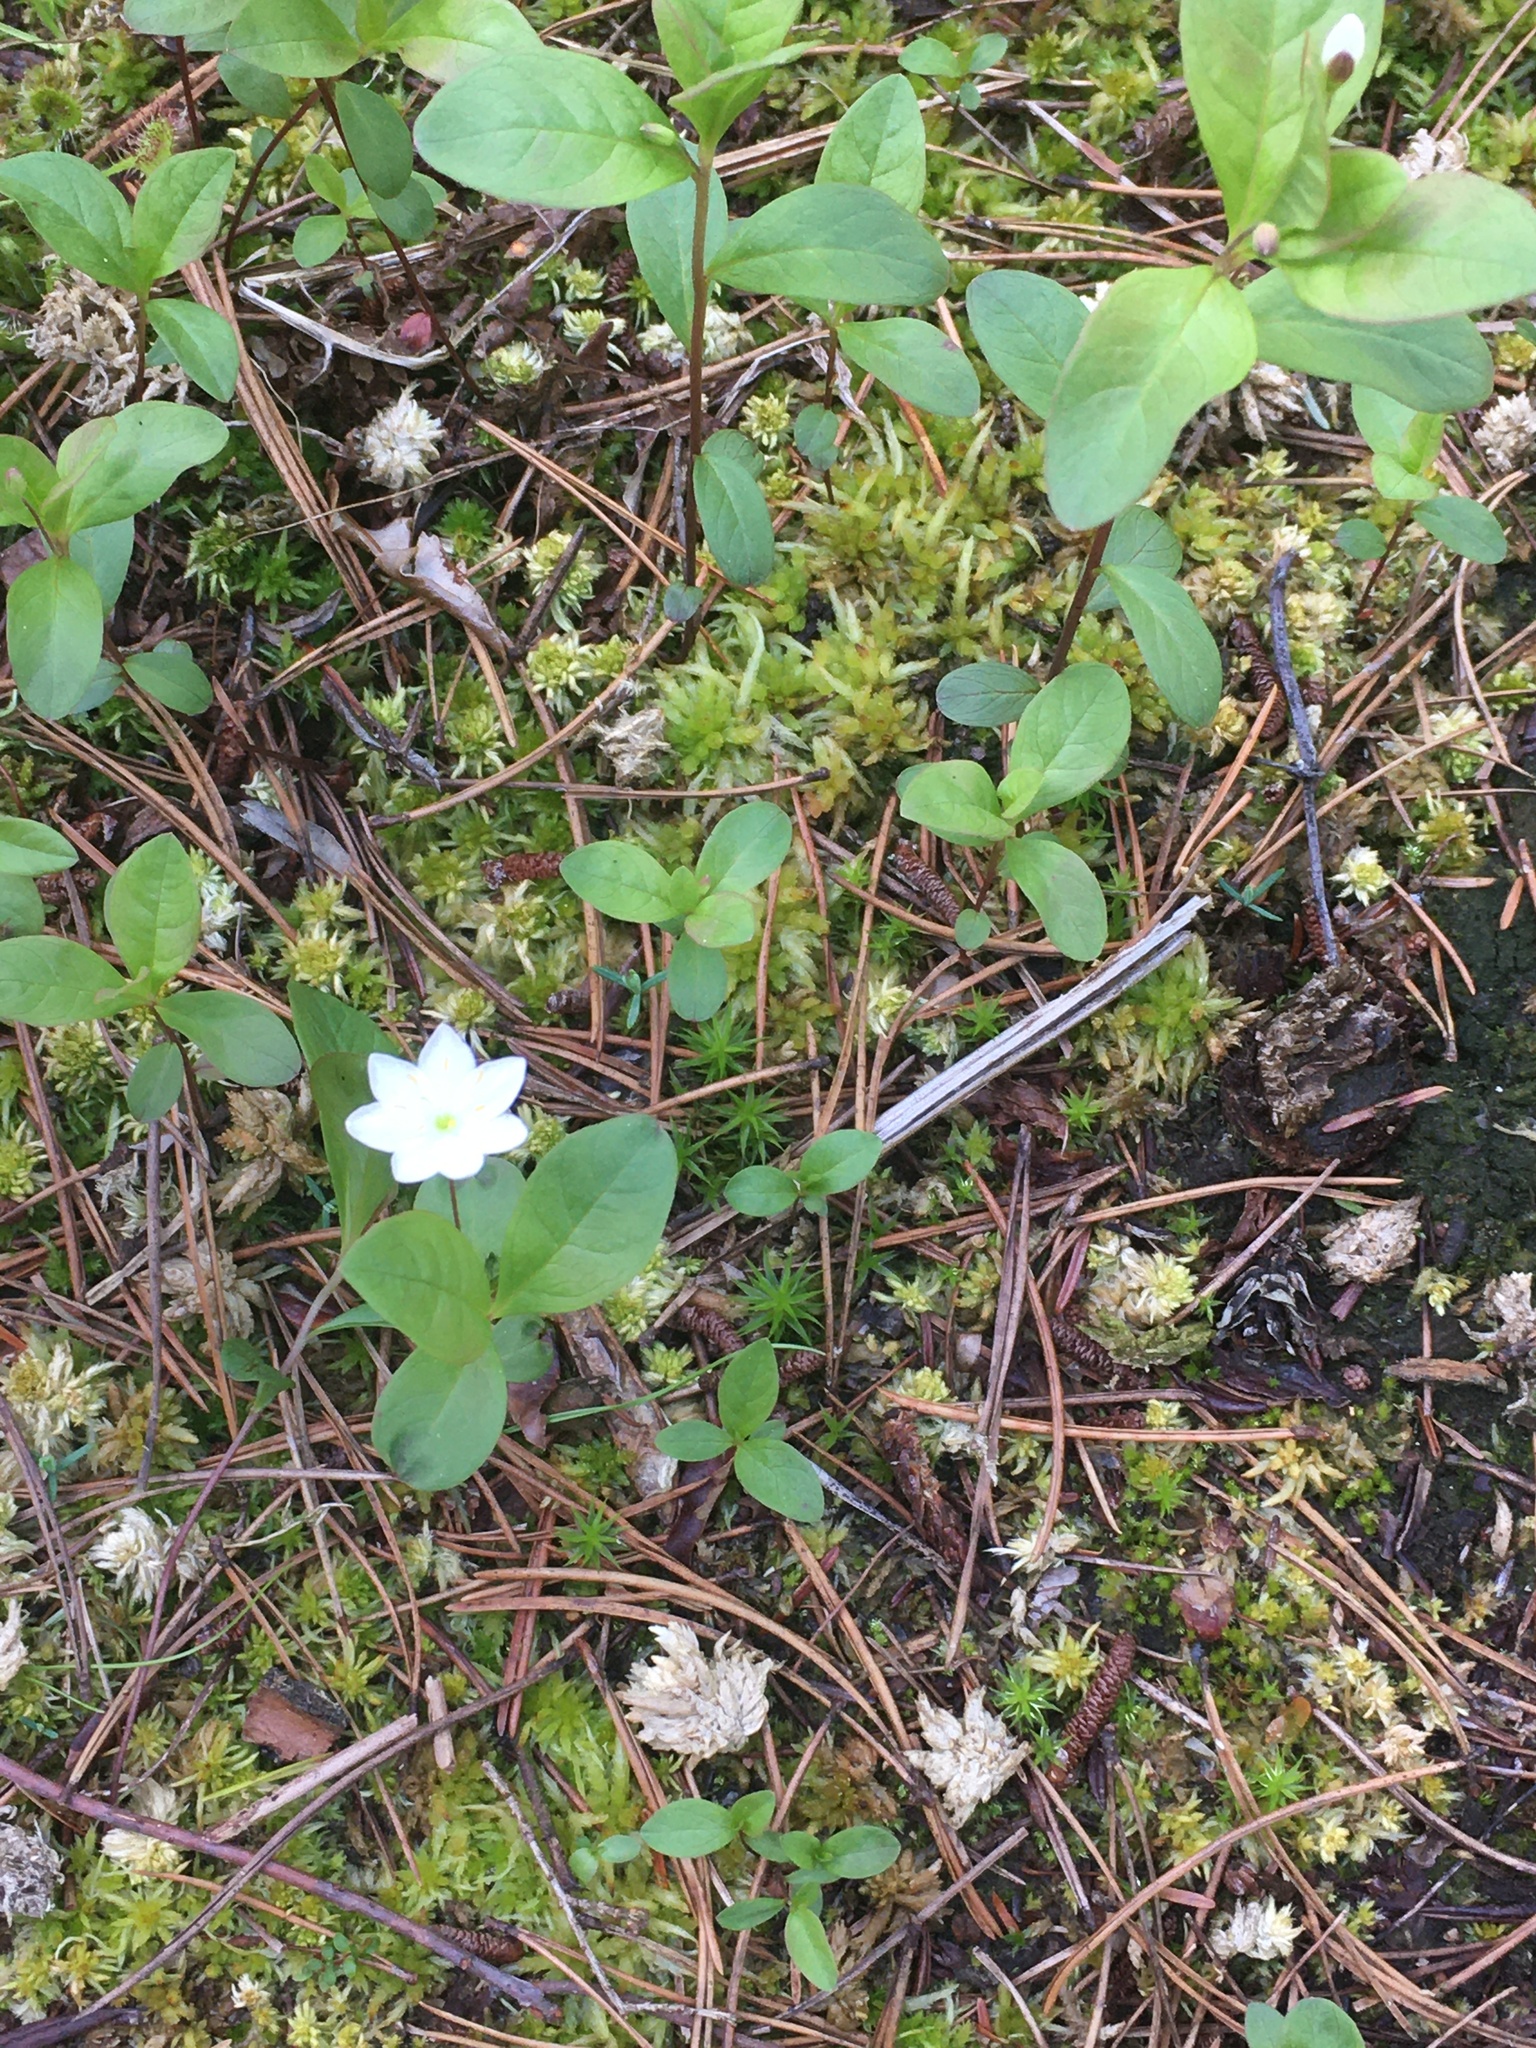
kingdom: Plantae
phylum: Tracheophyta
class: Magnoliopsida
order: Ericales
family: Primulaceae
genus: Lysimachia
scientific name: Lysimachia europaea
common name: Arctic starflower
